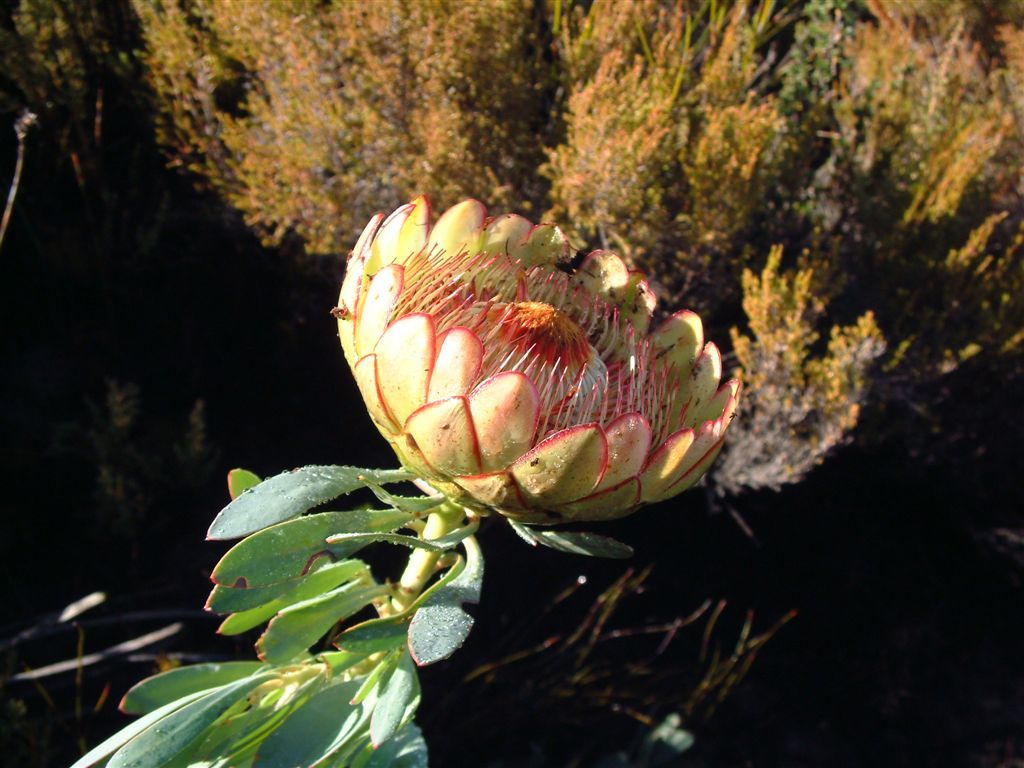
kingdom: Plantae
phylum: Tracheophyta
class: Magnoliopsida
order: Proteales
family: Proteaceae
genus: Protea
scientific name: Protea effusa
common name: Scarlet sugarbush
